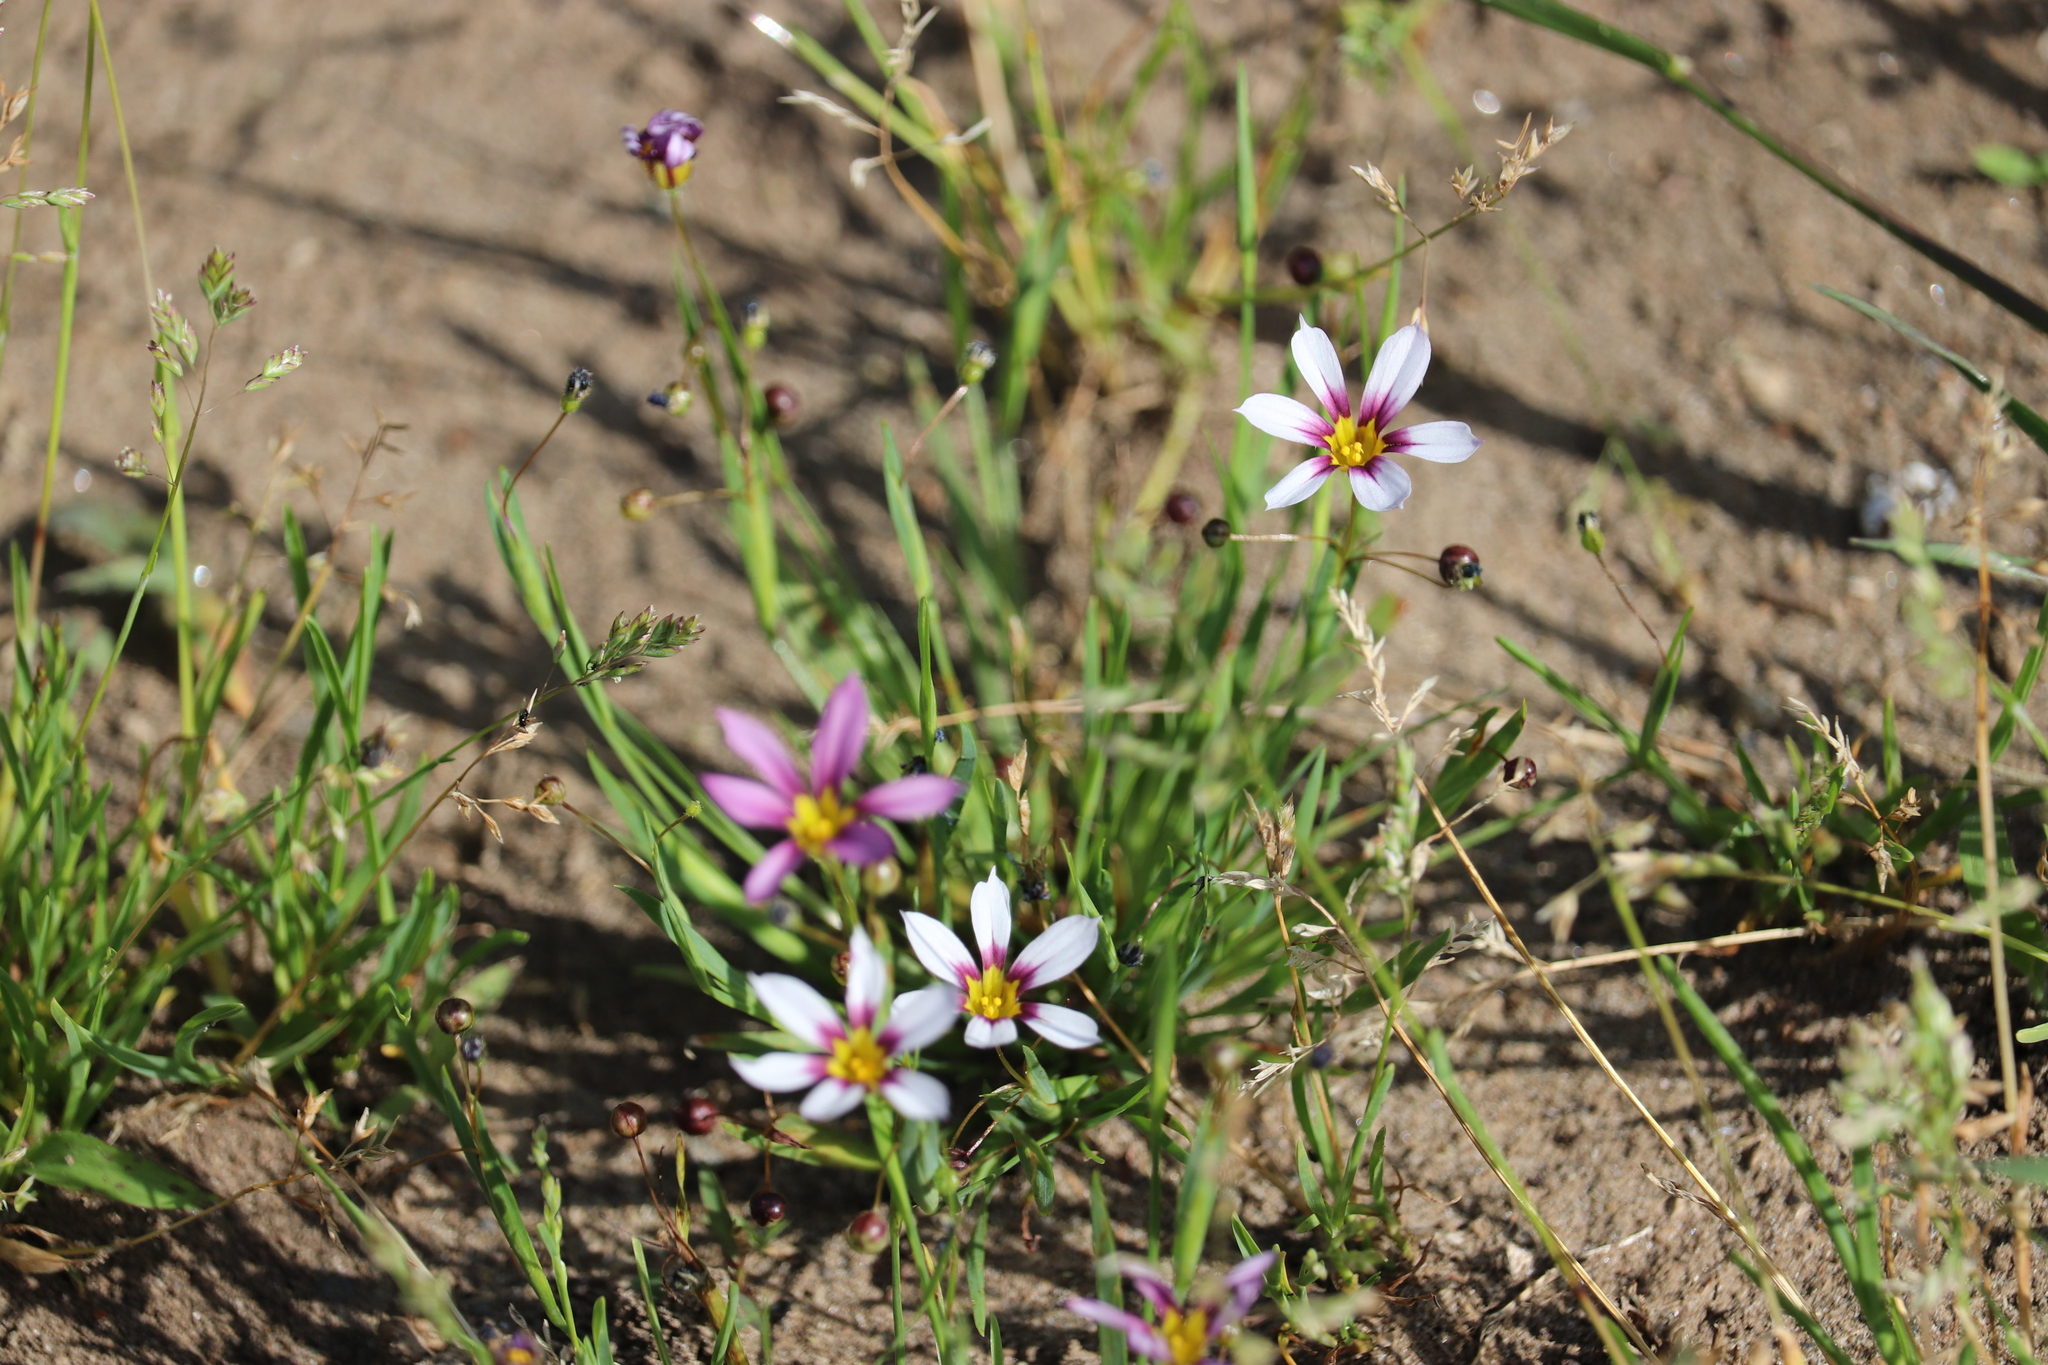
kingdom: Plantae
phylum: Tracheophyta
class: Liliopsida
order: Asparagales
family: Iridaceae
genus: Sisyrinchium
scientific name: Sisyrinchium micranthum
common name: Bermuda pigroot
